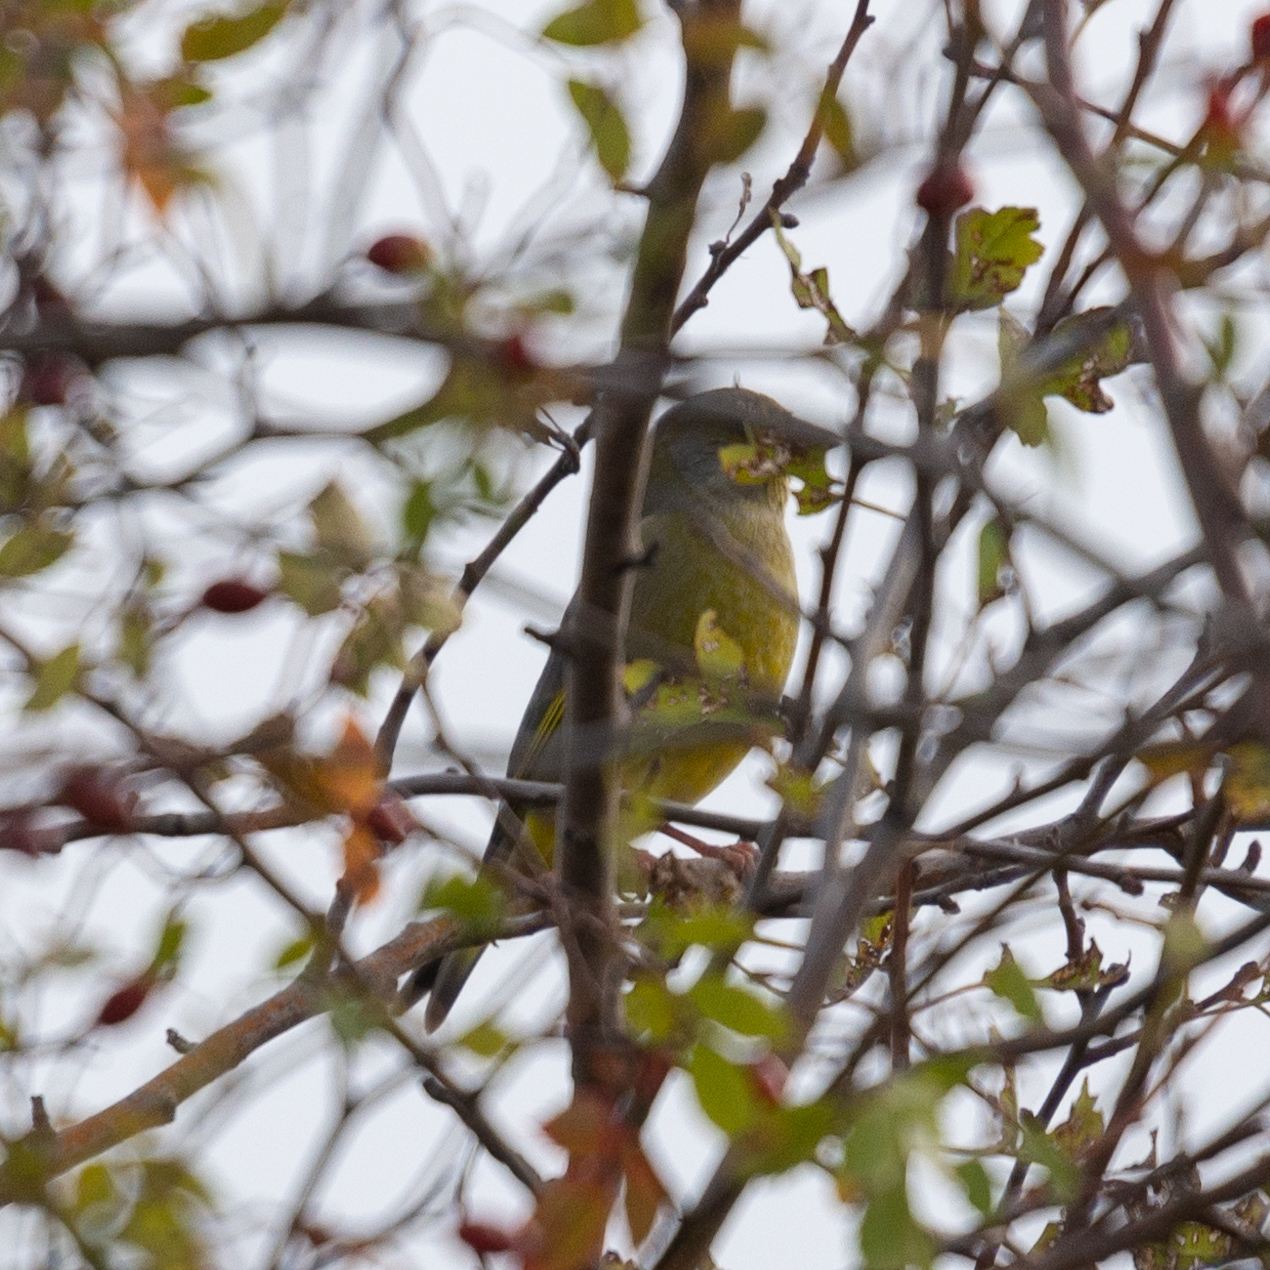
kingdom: Plantae
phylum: Tracheophyta
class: Liliopsida
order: Poales
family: Poaceae
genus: Chloris
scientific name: Chloris chloris
